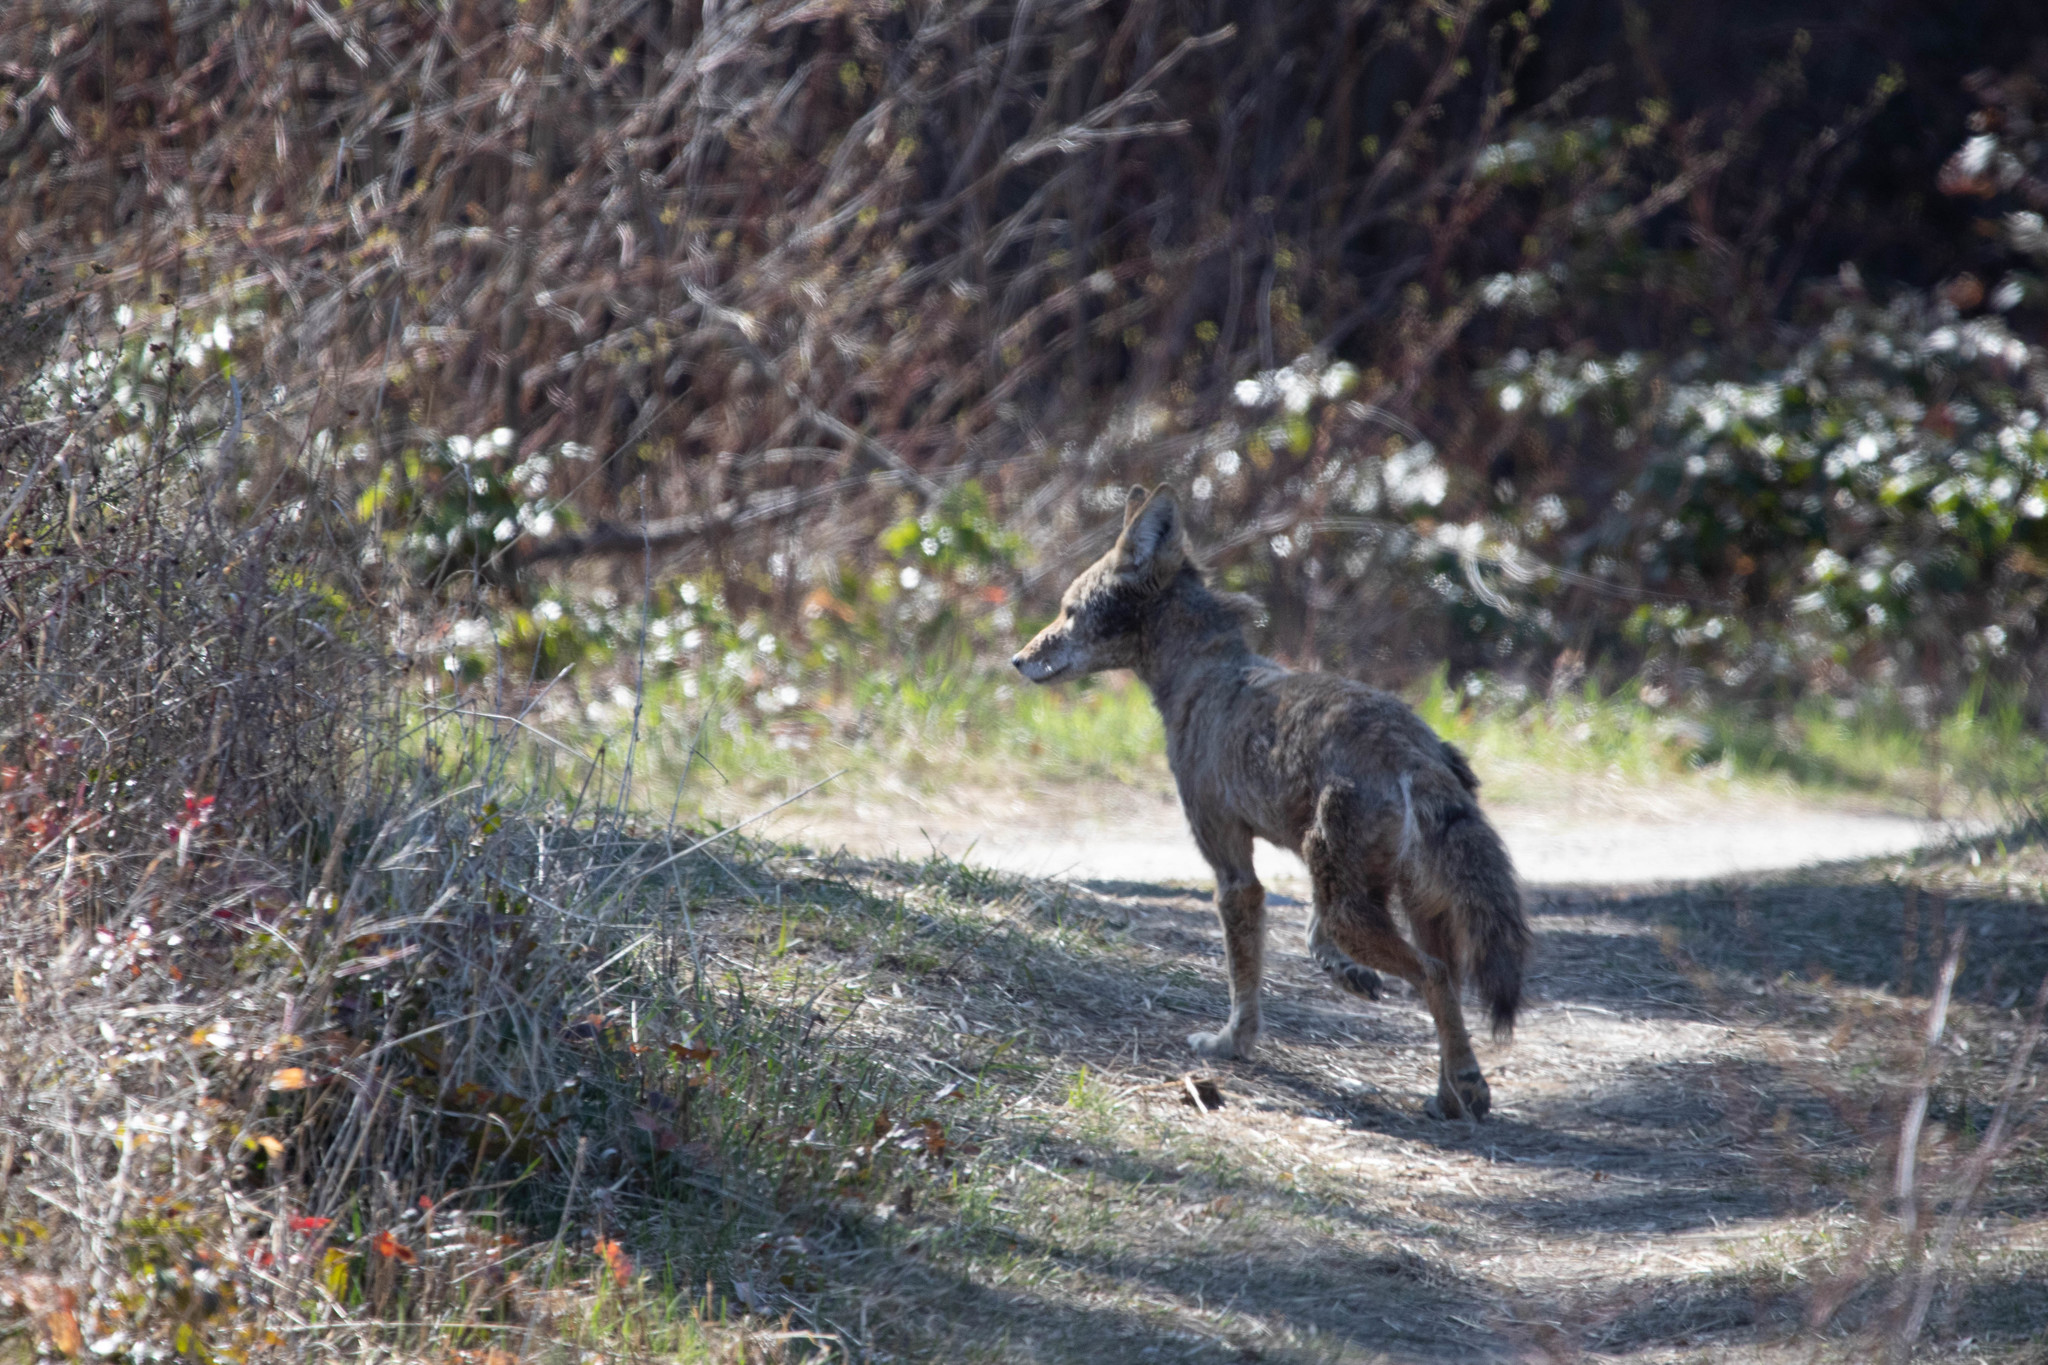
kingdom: Animalia
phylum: Chordata
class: Mammalia
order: Carnivora
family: Canidae
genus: Canis
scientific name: Canis latrans
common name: Coyote
